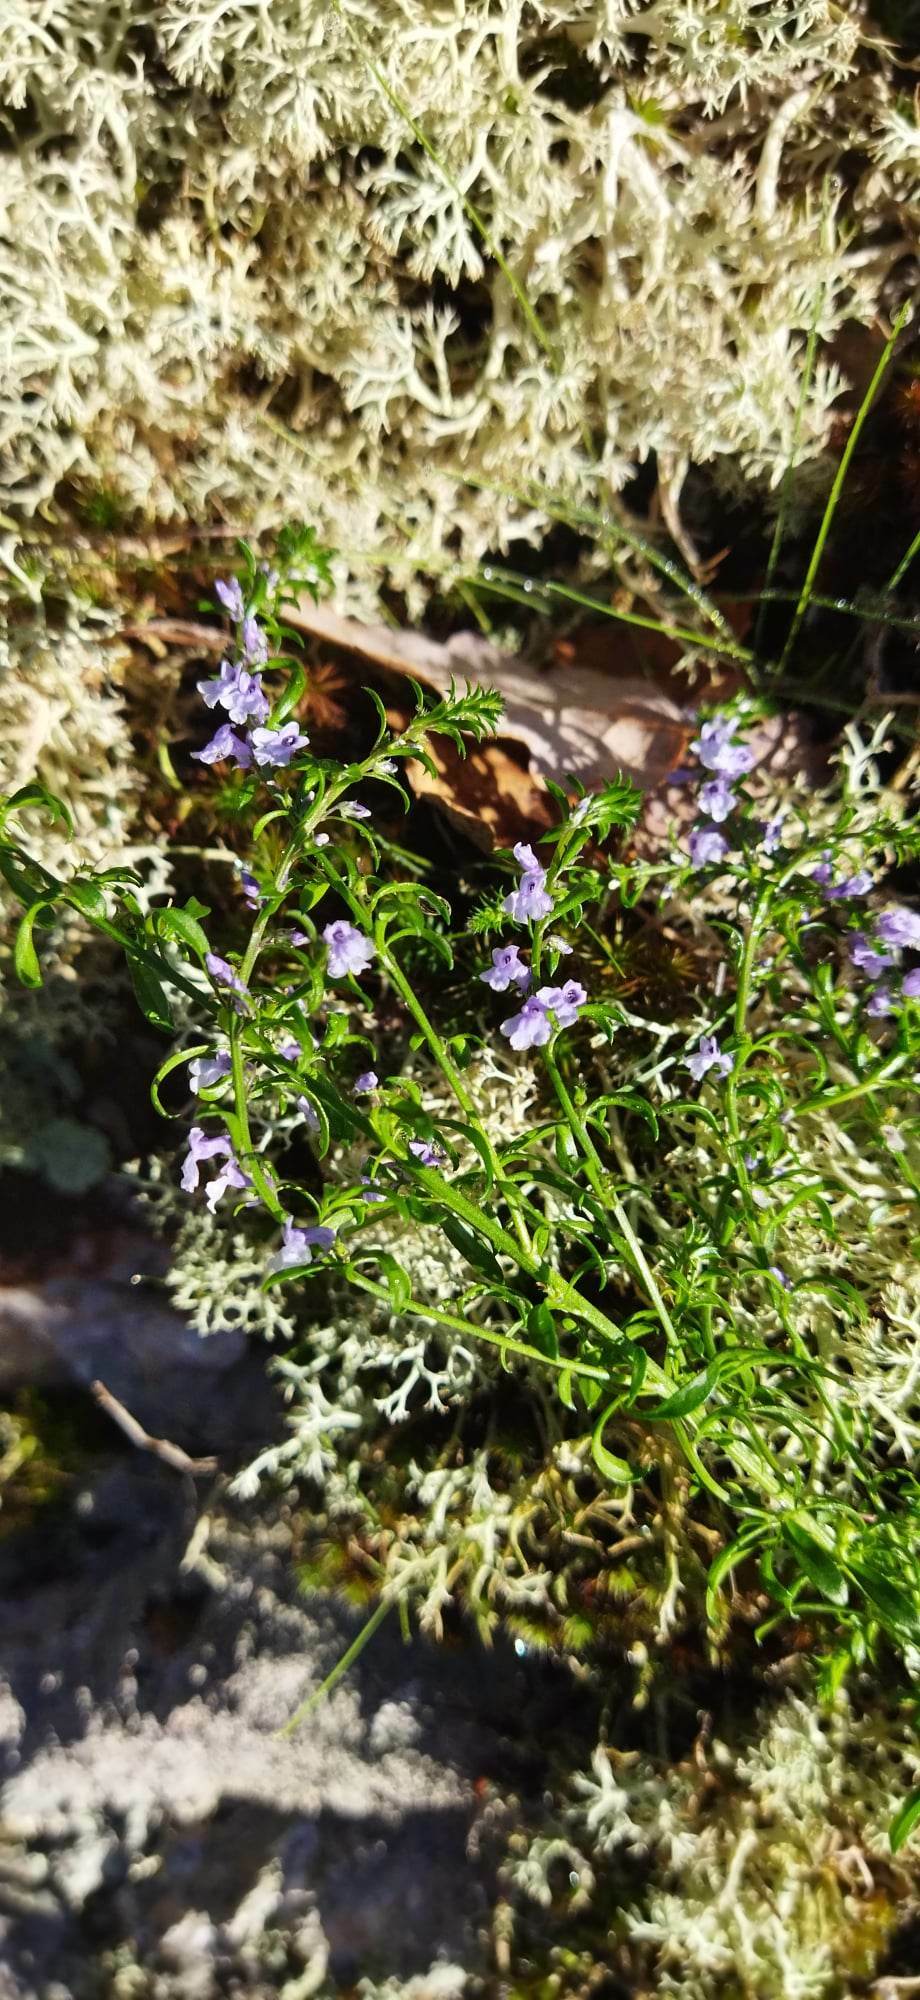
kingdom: Plantae
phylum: Tracheophyta
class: Magnoliopsida
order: Lamiales
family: Plantaginaceae
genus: Anarrhinum
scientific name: Anarrhinum bellidifolium
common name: Daisy-leaved toadflax
